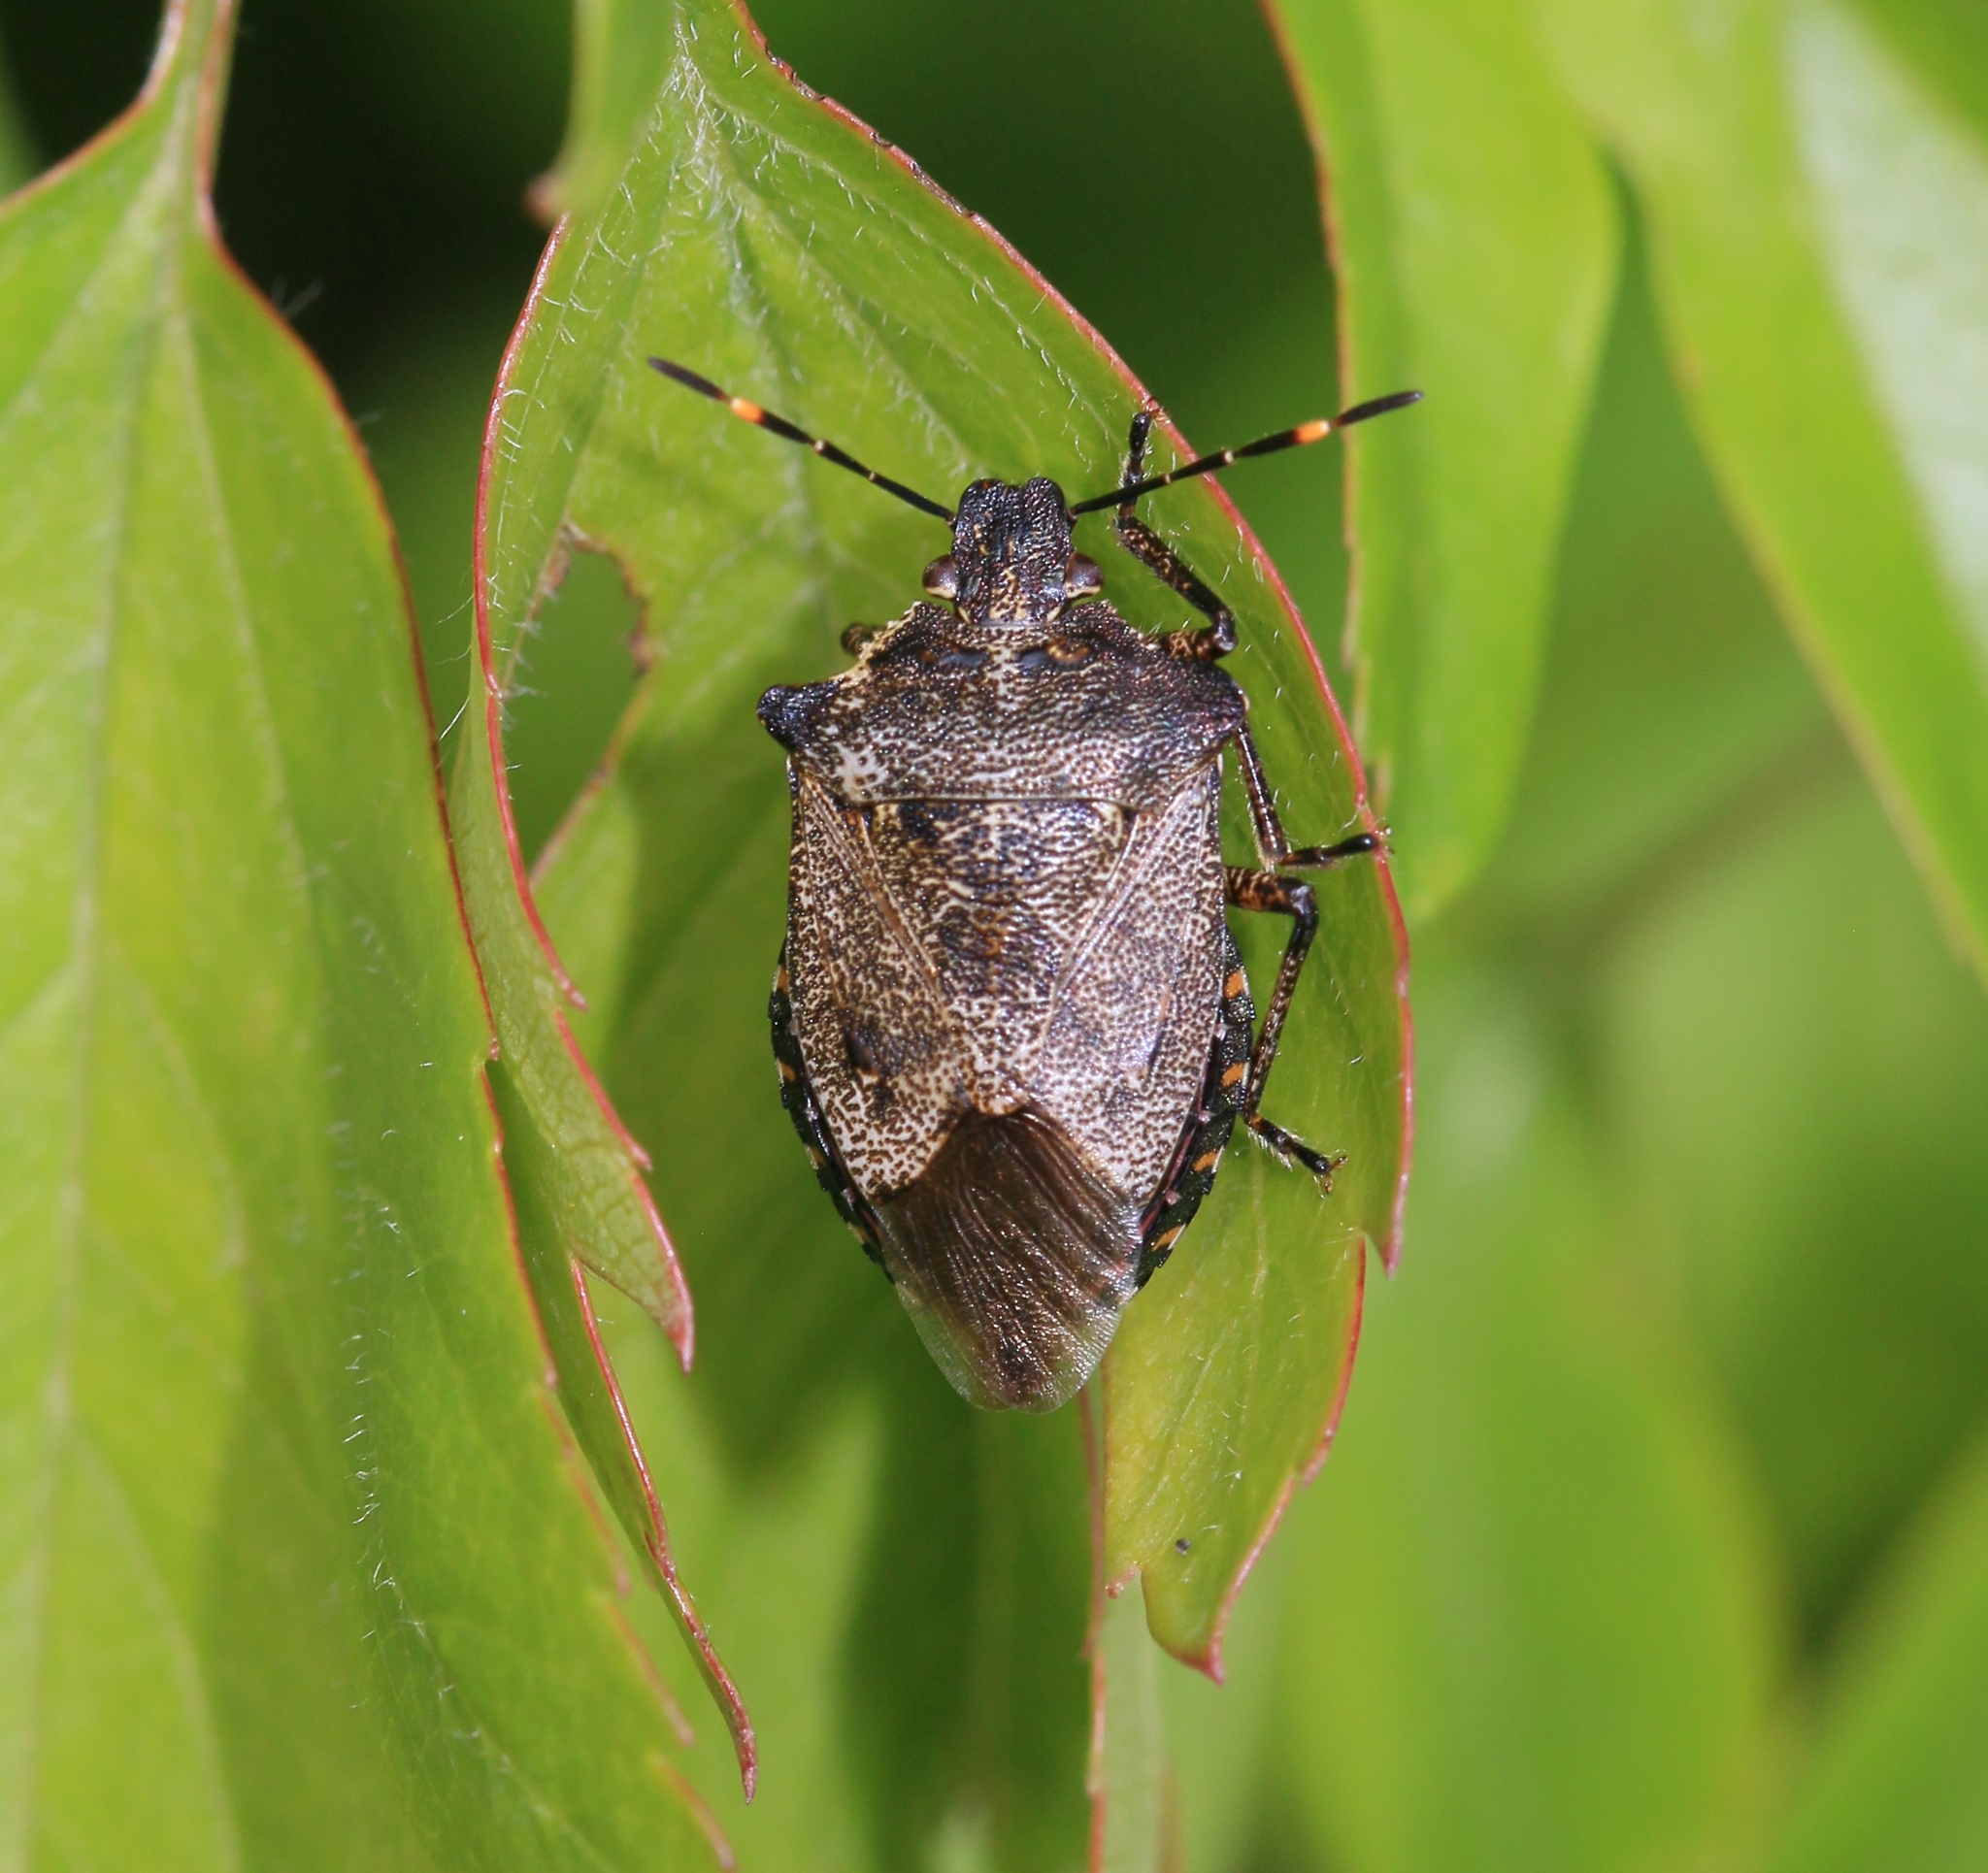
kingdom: Animalia
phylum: Arthropoda
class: Insecta
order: Hemiptera
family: Pentatomidae
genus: Troilus
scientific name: Troilus luridus
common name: Bronze shieldbug
